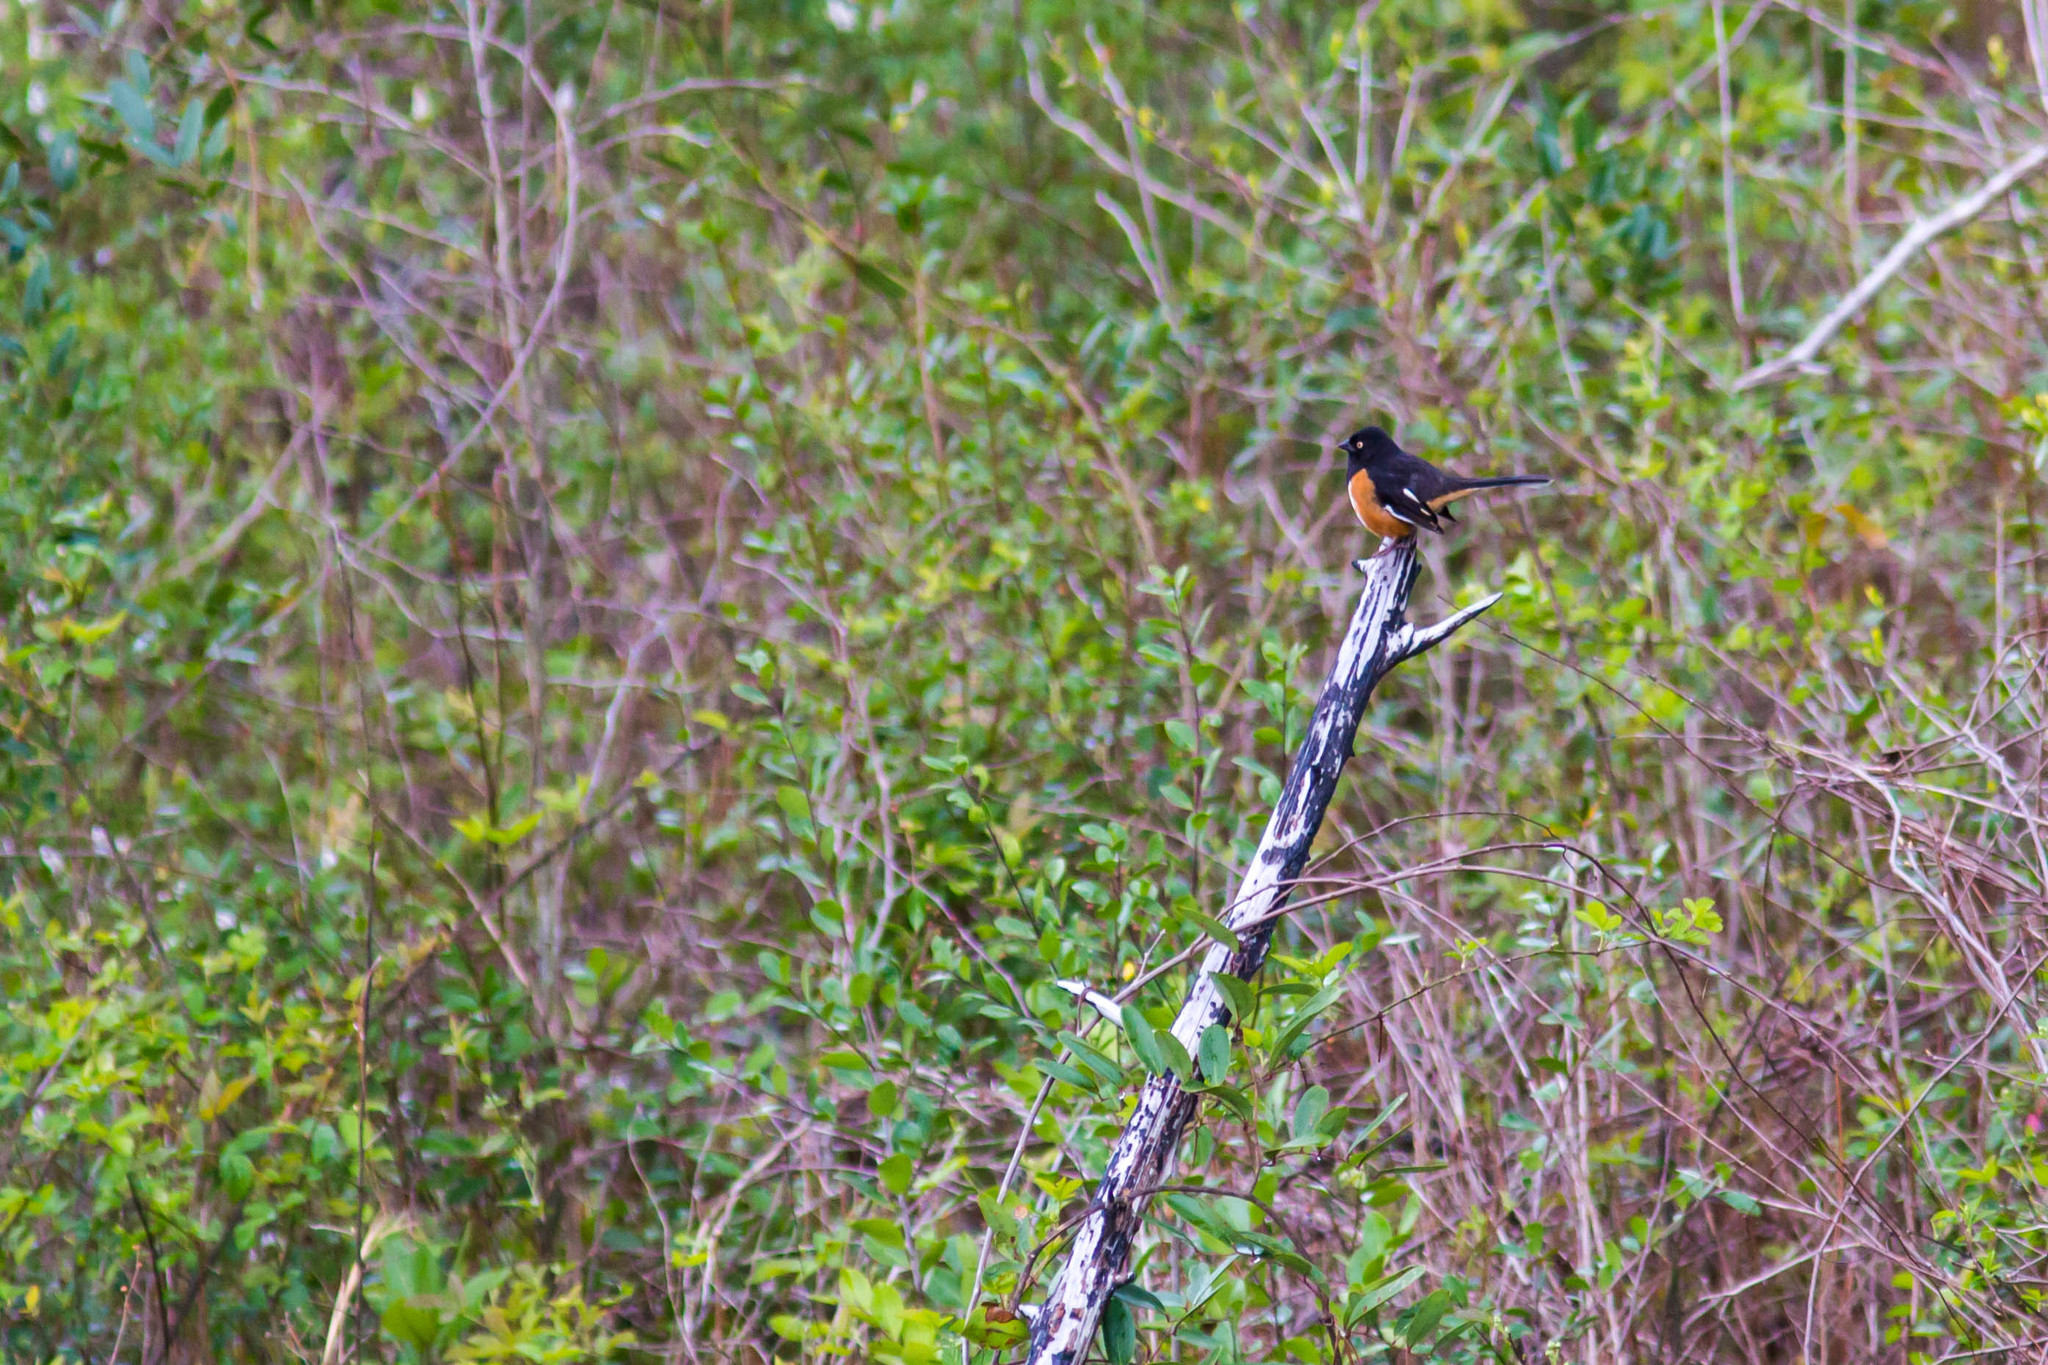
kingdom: Animalia
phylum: Chordata
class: Aves
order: Passeriformes
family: Passerellidae
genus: Pipilo
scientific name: Pipilo erythrophthalmus
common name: Eastern towhee
